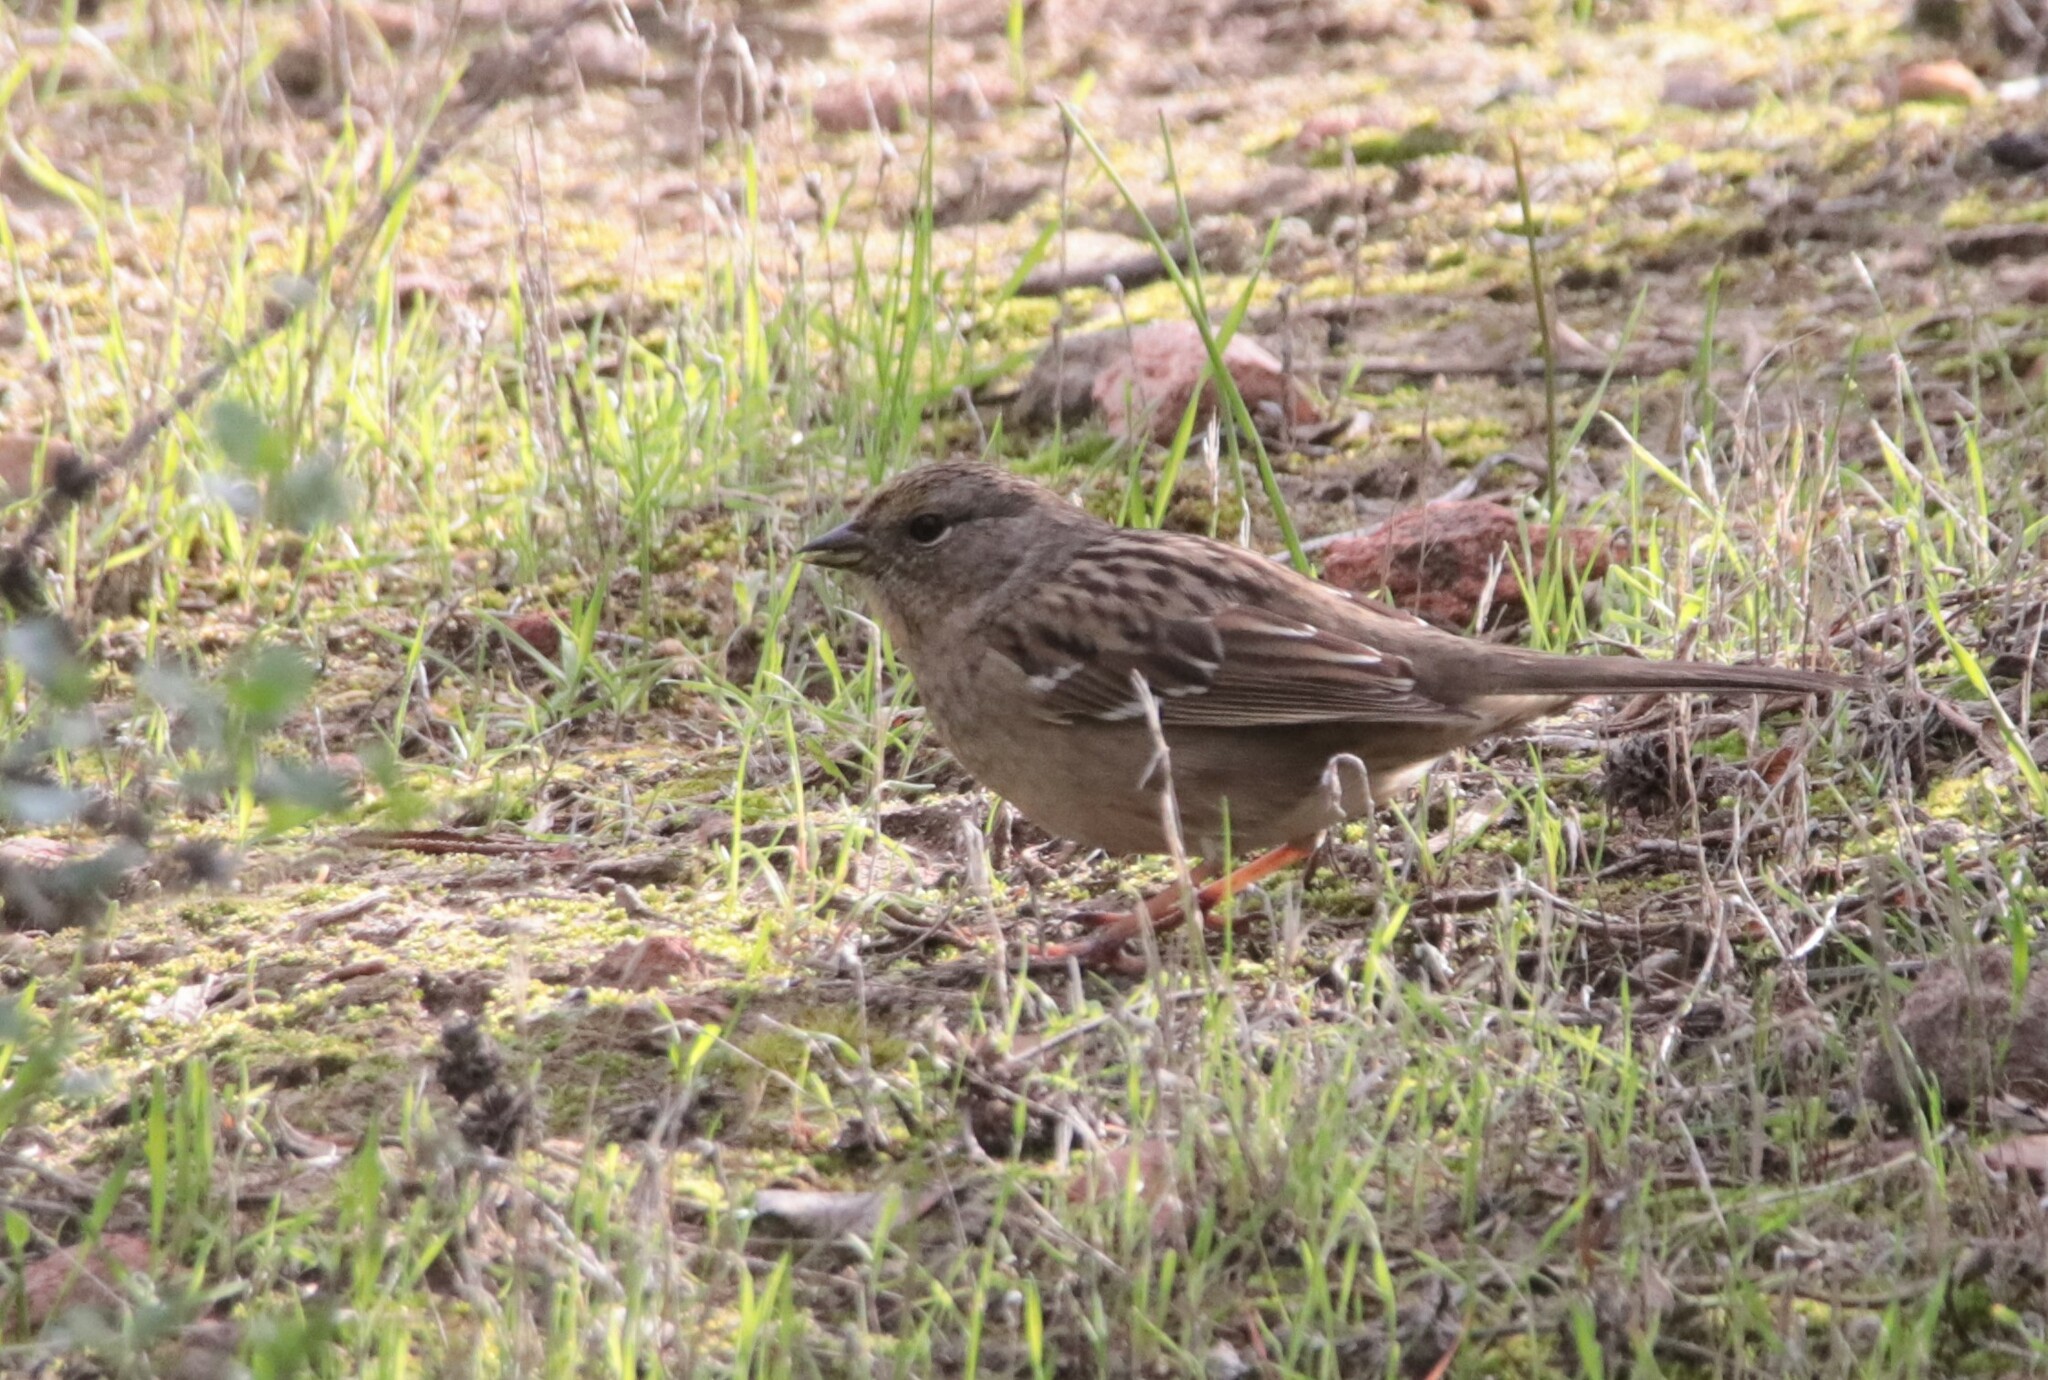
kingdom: Animalia
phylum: Chordata
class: Aves
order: Passeriformes
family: Passerellidae
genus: Zonotrichia
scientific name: Zonotrichia atricapilla
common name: Golden-crowned sparrow
